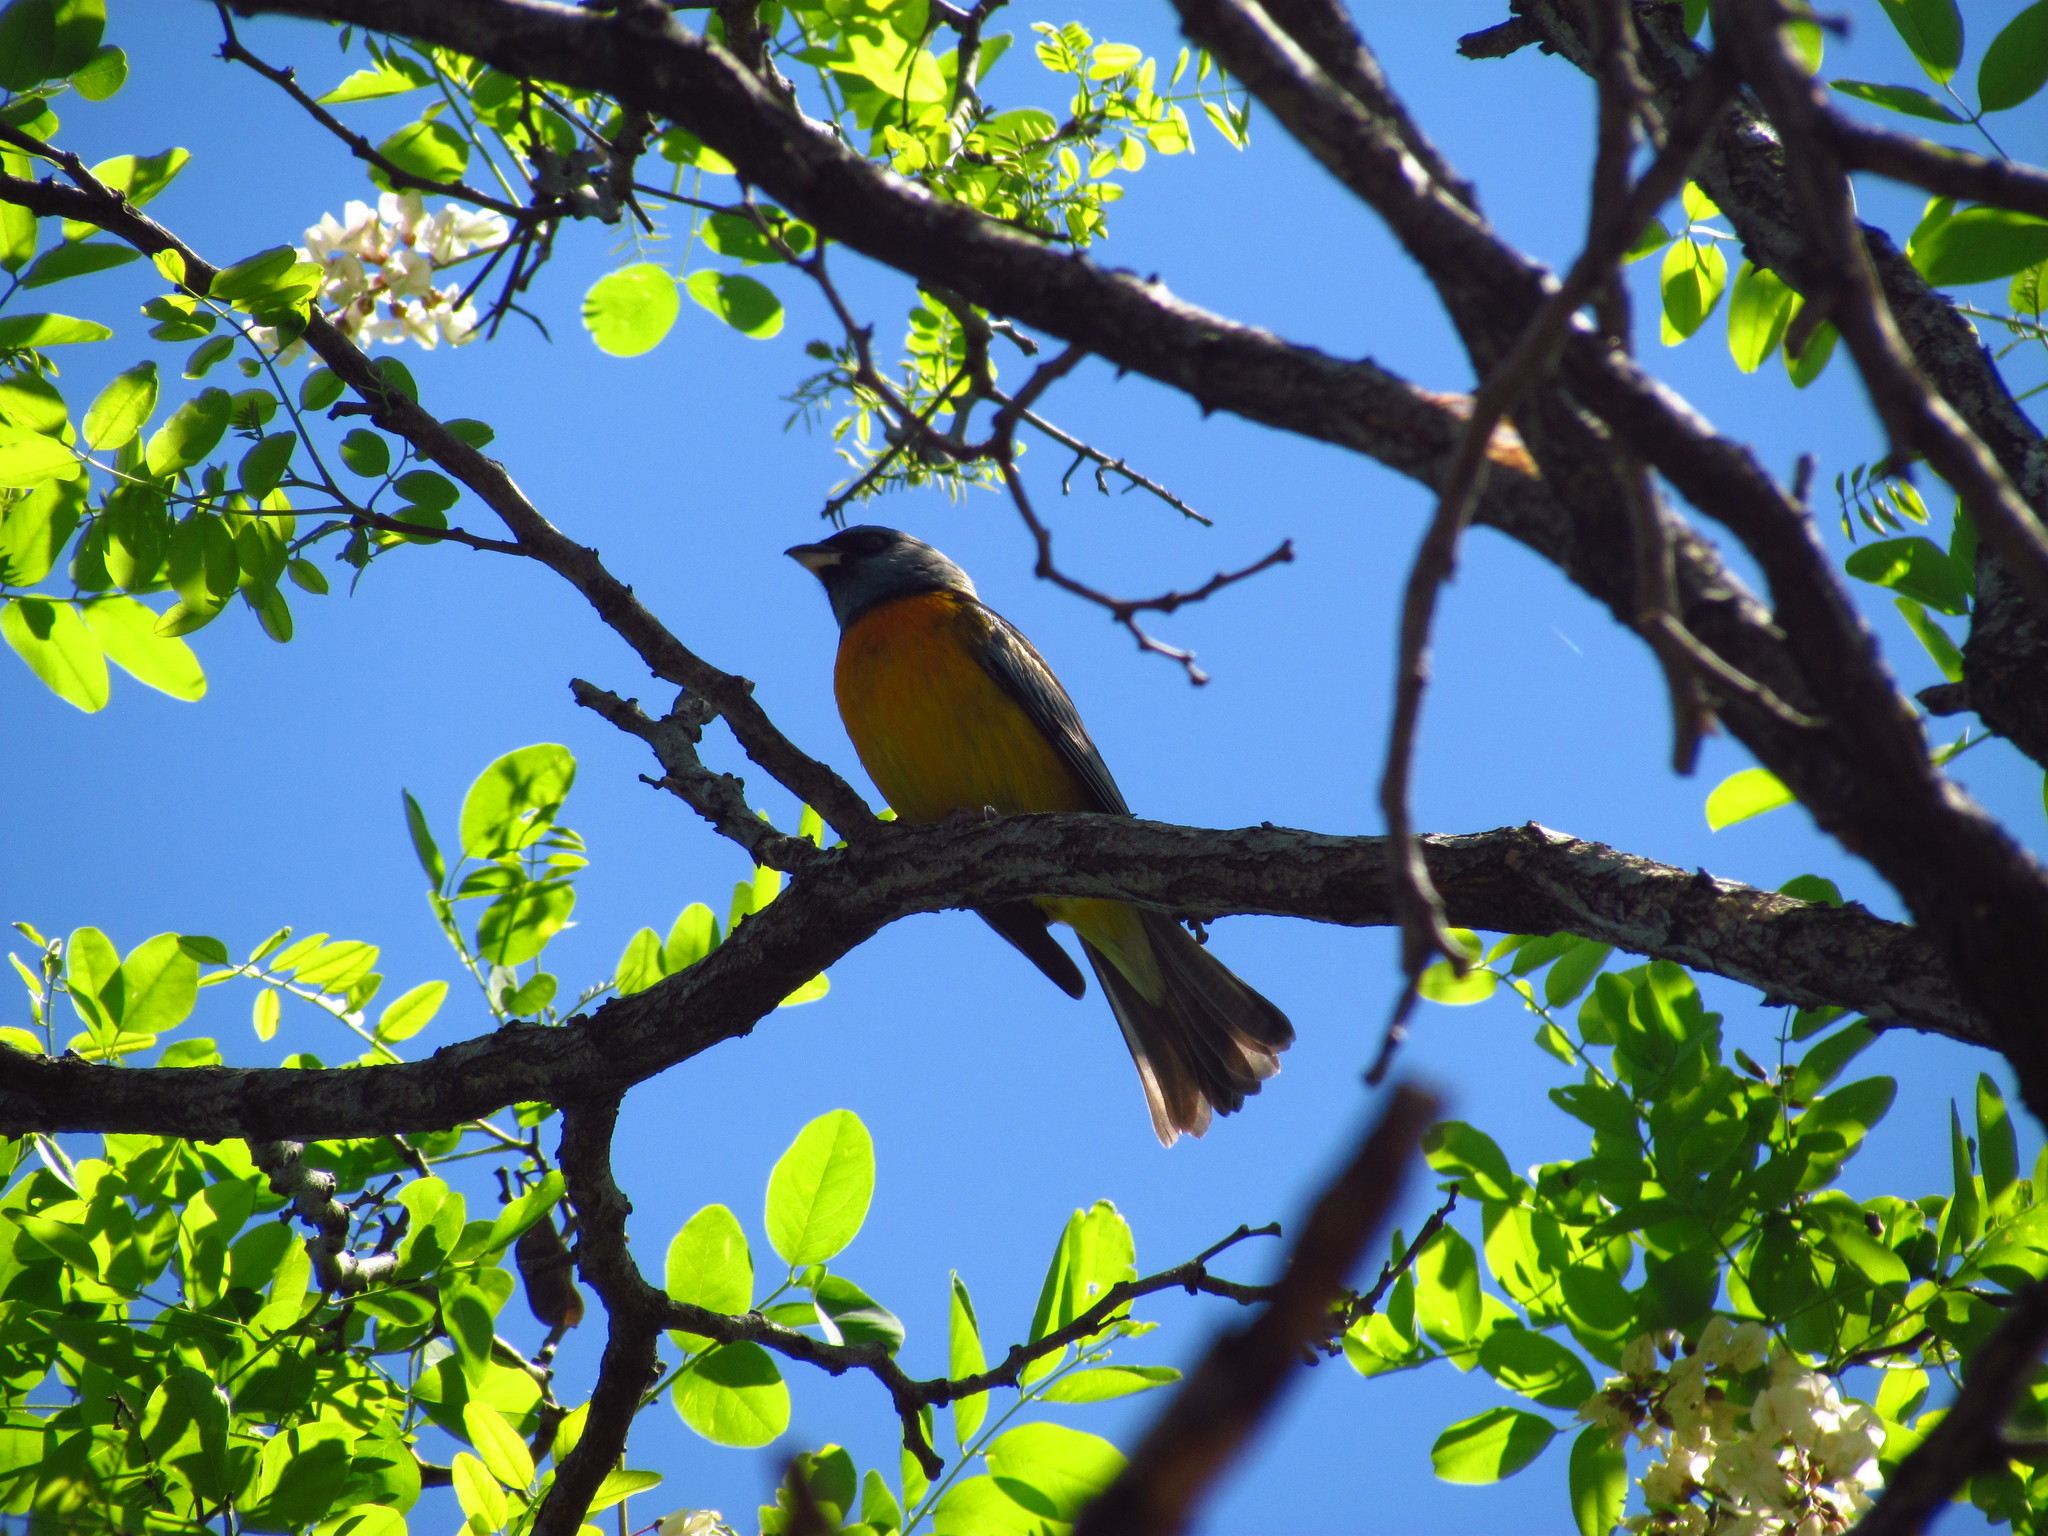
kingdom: Animalia
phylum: Chordata
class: Aves
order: Passeriformes
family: Thraupidae
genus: Rauenia
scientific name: Rauenia bonariensis
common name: Blue-and-yellow tanager
